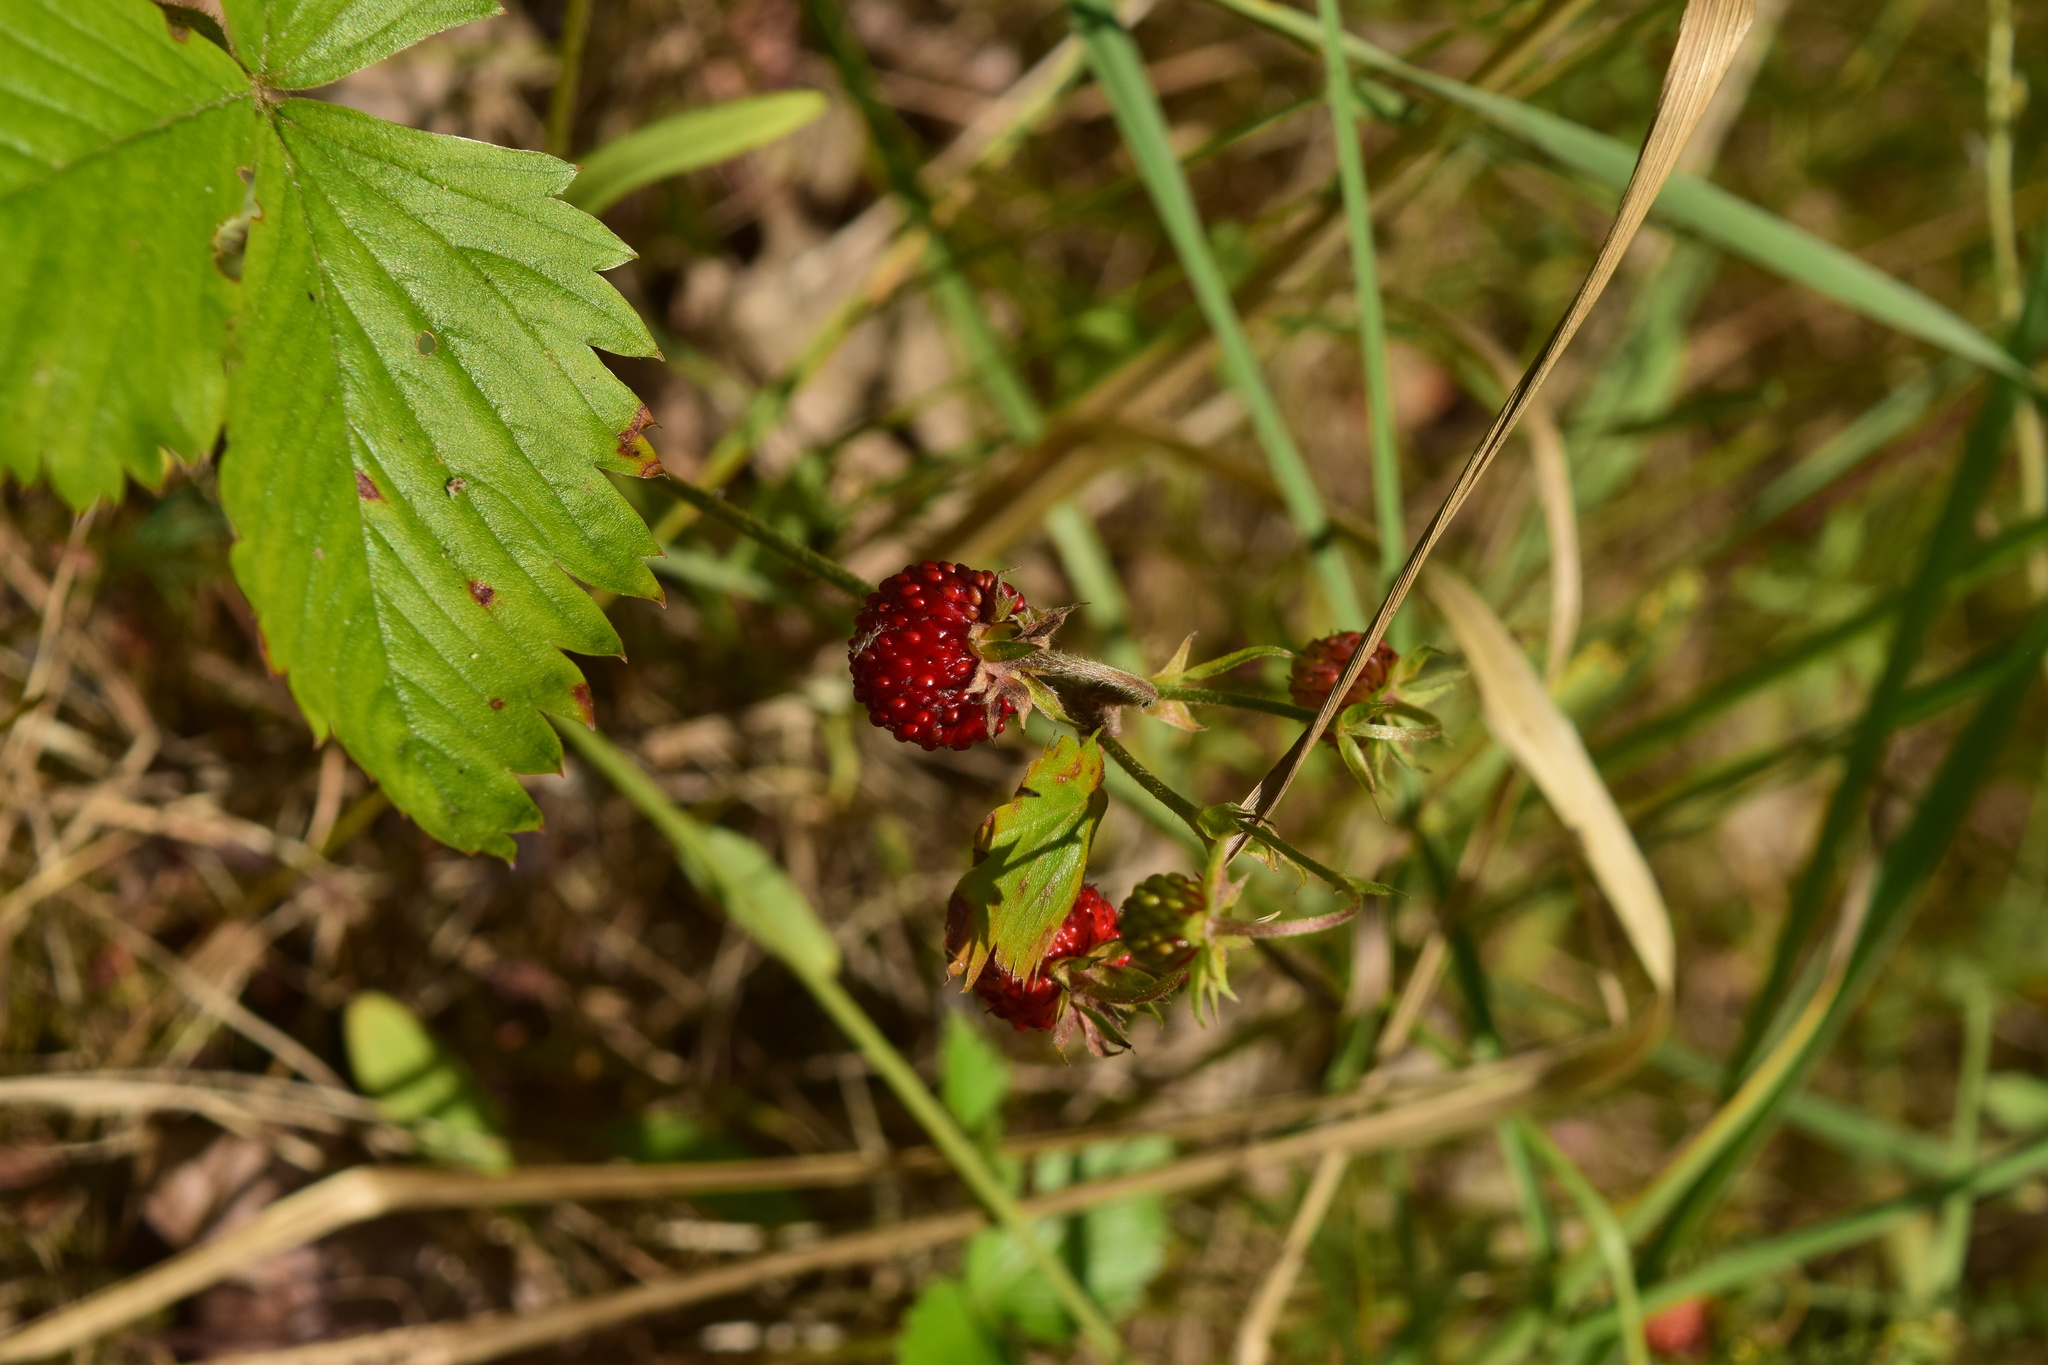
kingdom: Plantae
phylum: Tracheophyta
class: Magnoliopsida
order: Rosales
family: Rosaceae
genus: Fragaria
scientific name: Fragaria vesca
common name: Wild strawberry
